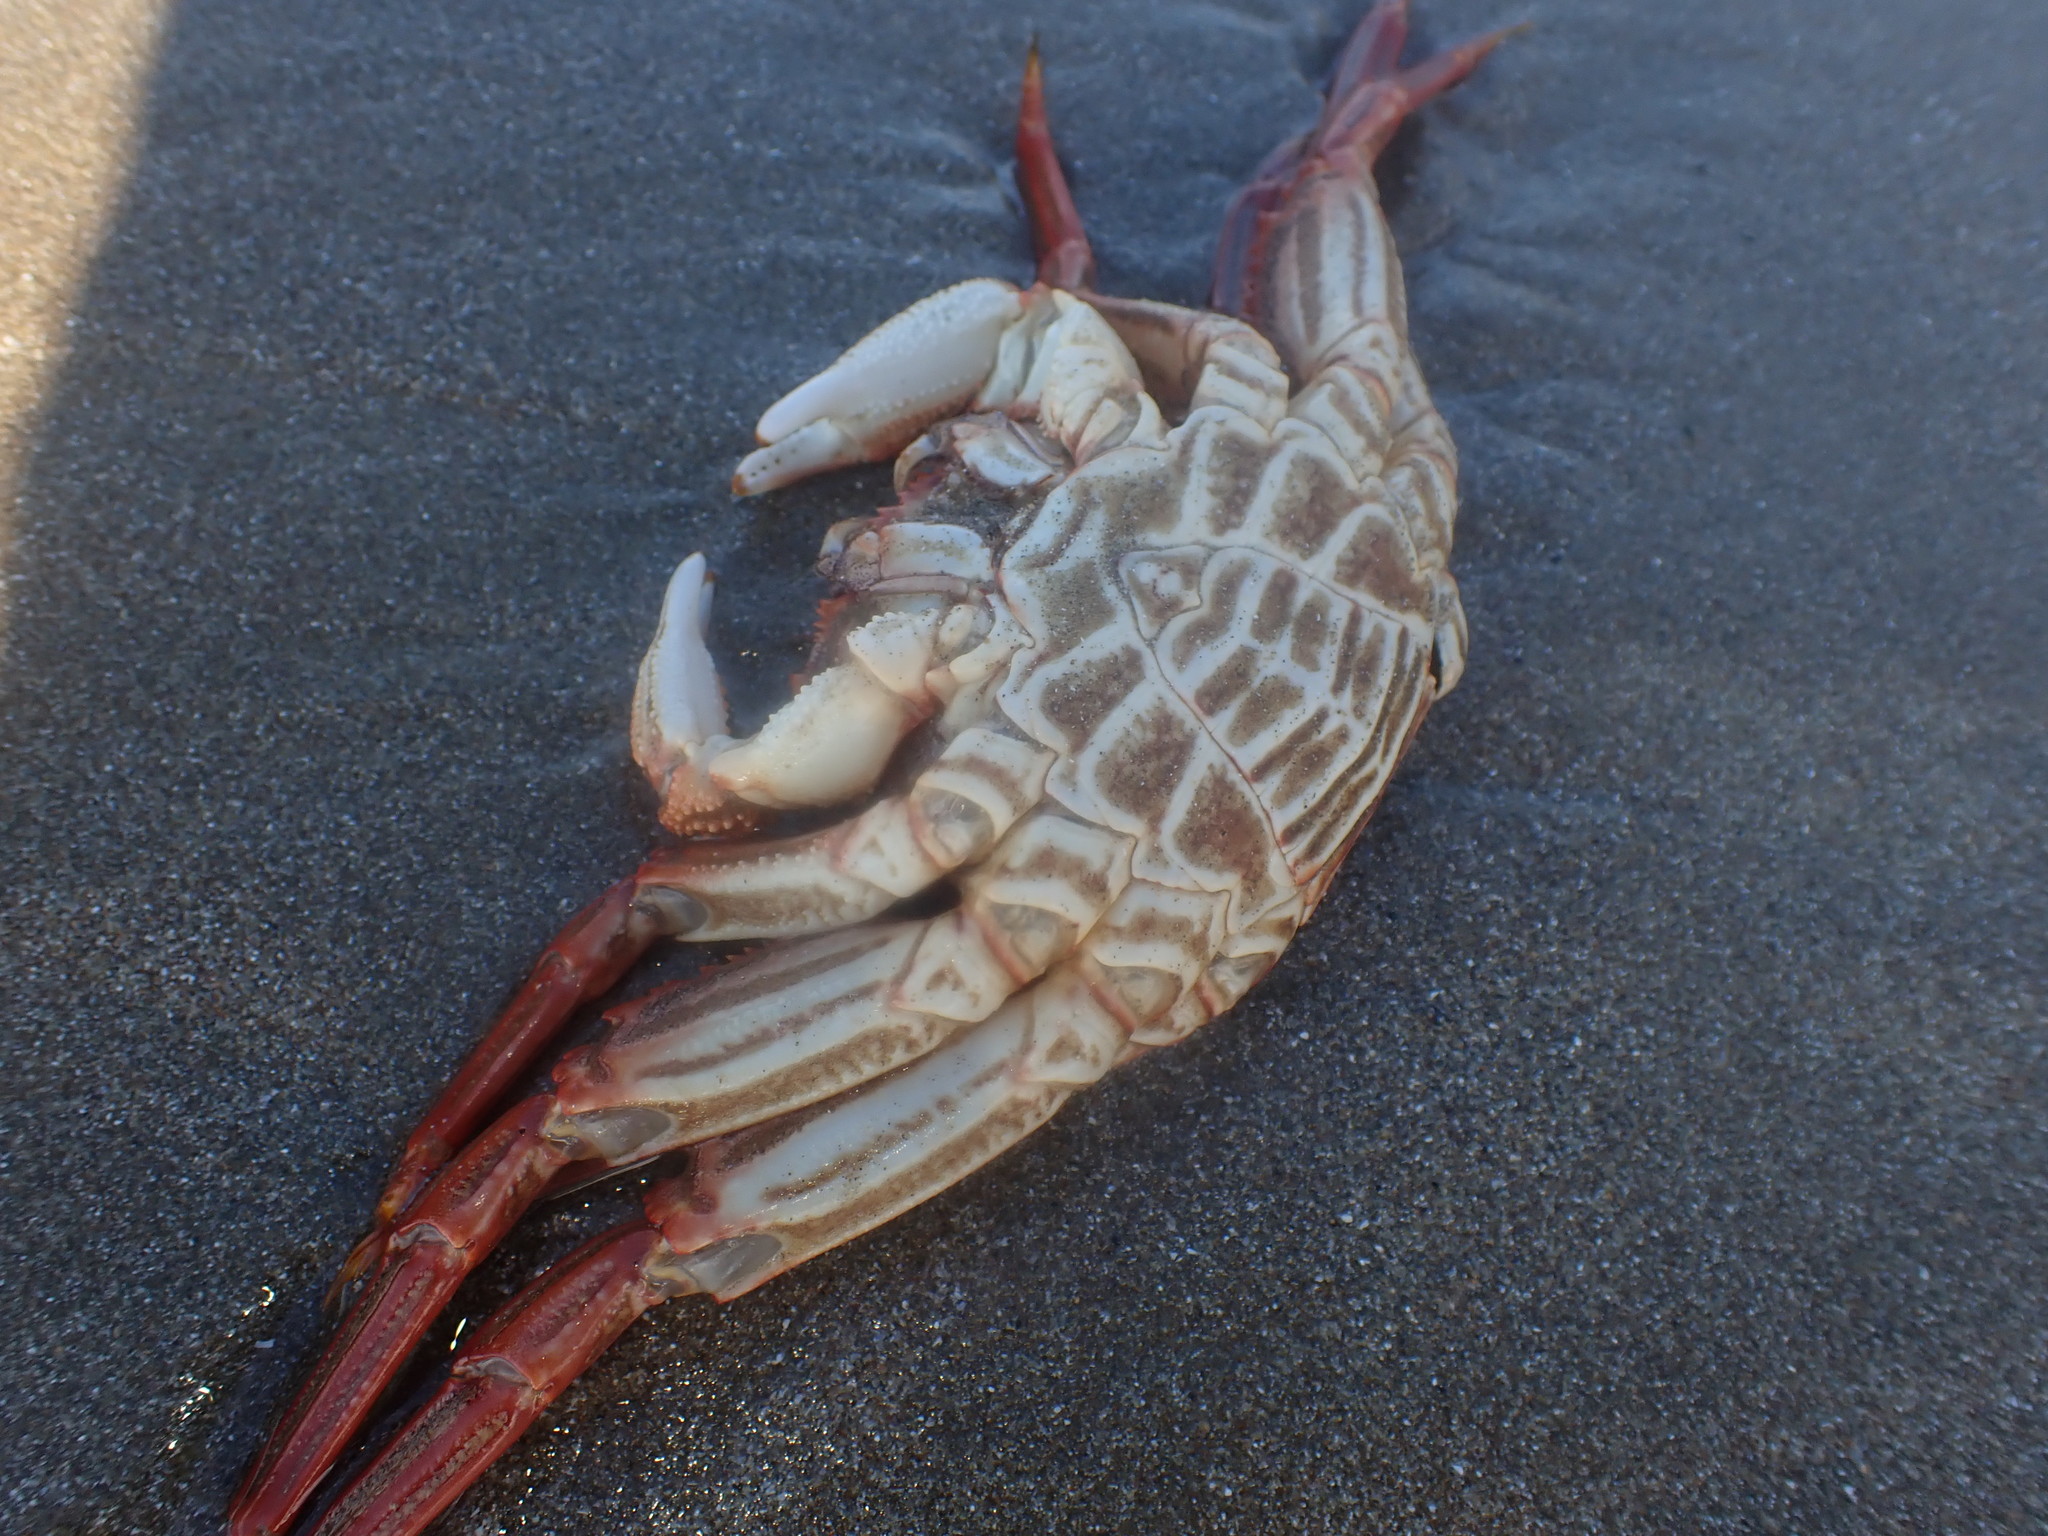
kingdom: Animalia
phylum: Arthropoda
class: Malacostraca
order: Decapoda
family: Plagusiidae
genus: Guinusia
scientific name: Guinusia chabrus
